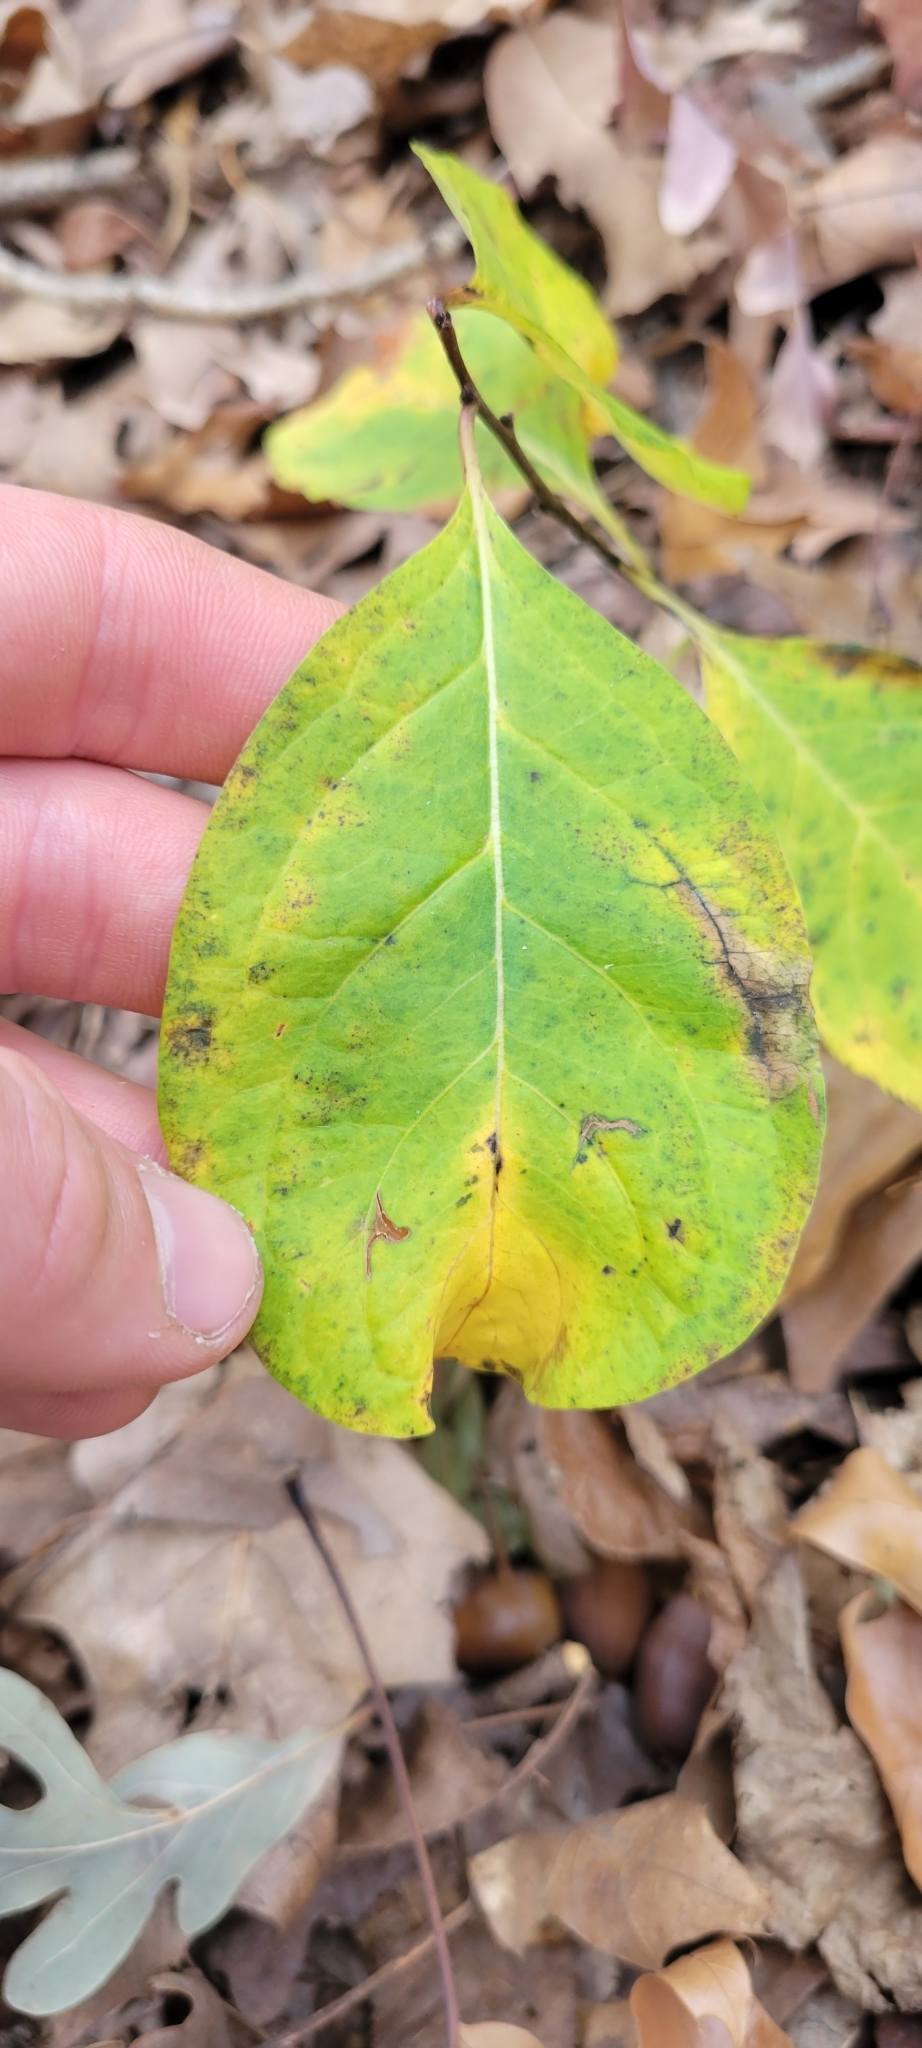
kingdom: Plantae
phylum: Tracheophyta
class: Magnoliopsida
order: Celastrales
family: Celastraceae
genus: Celastrus
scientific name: Celastrus orbiculatus
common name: Oriental bittersweet
